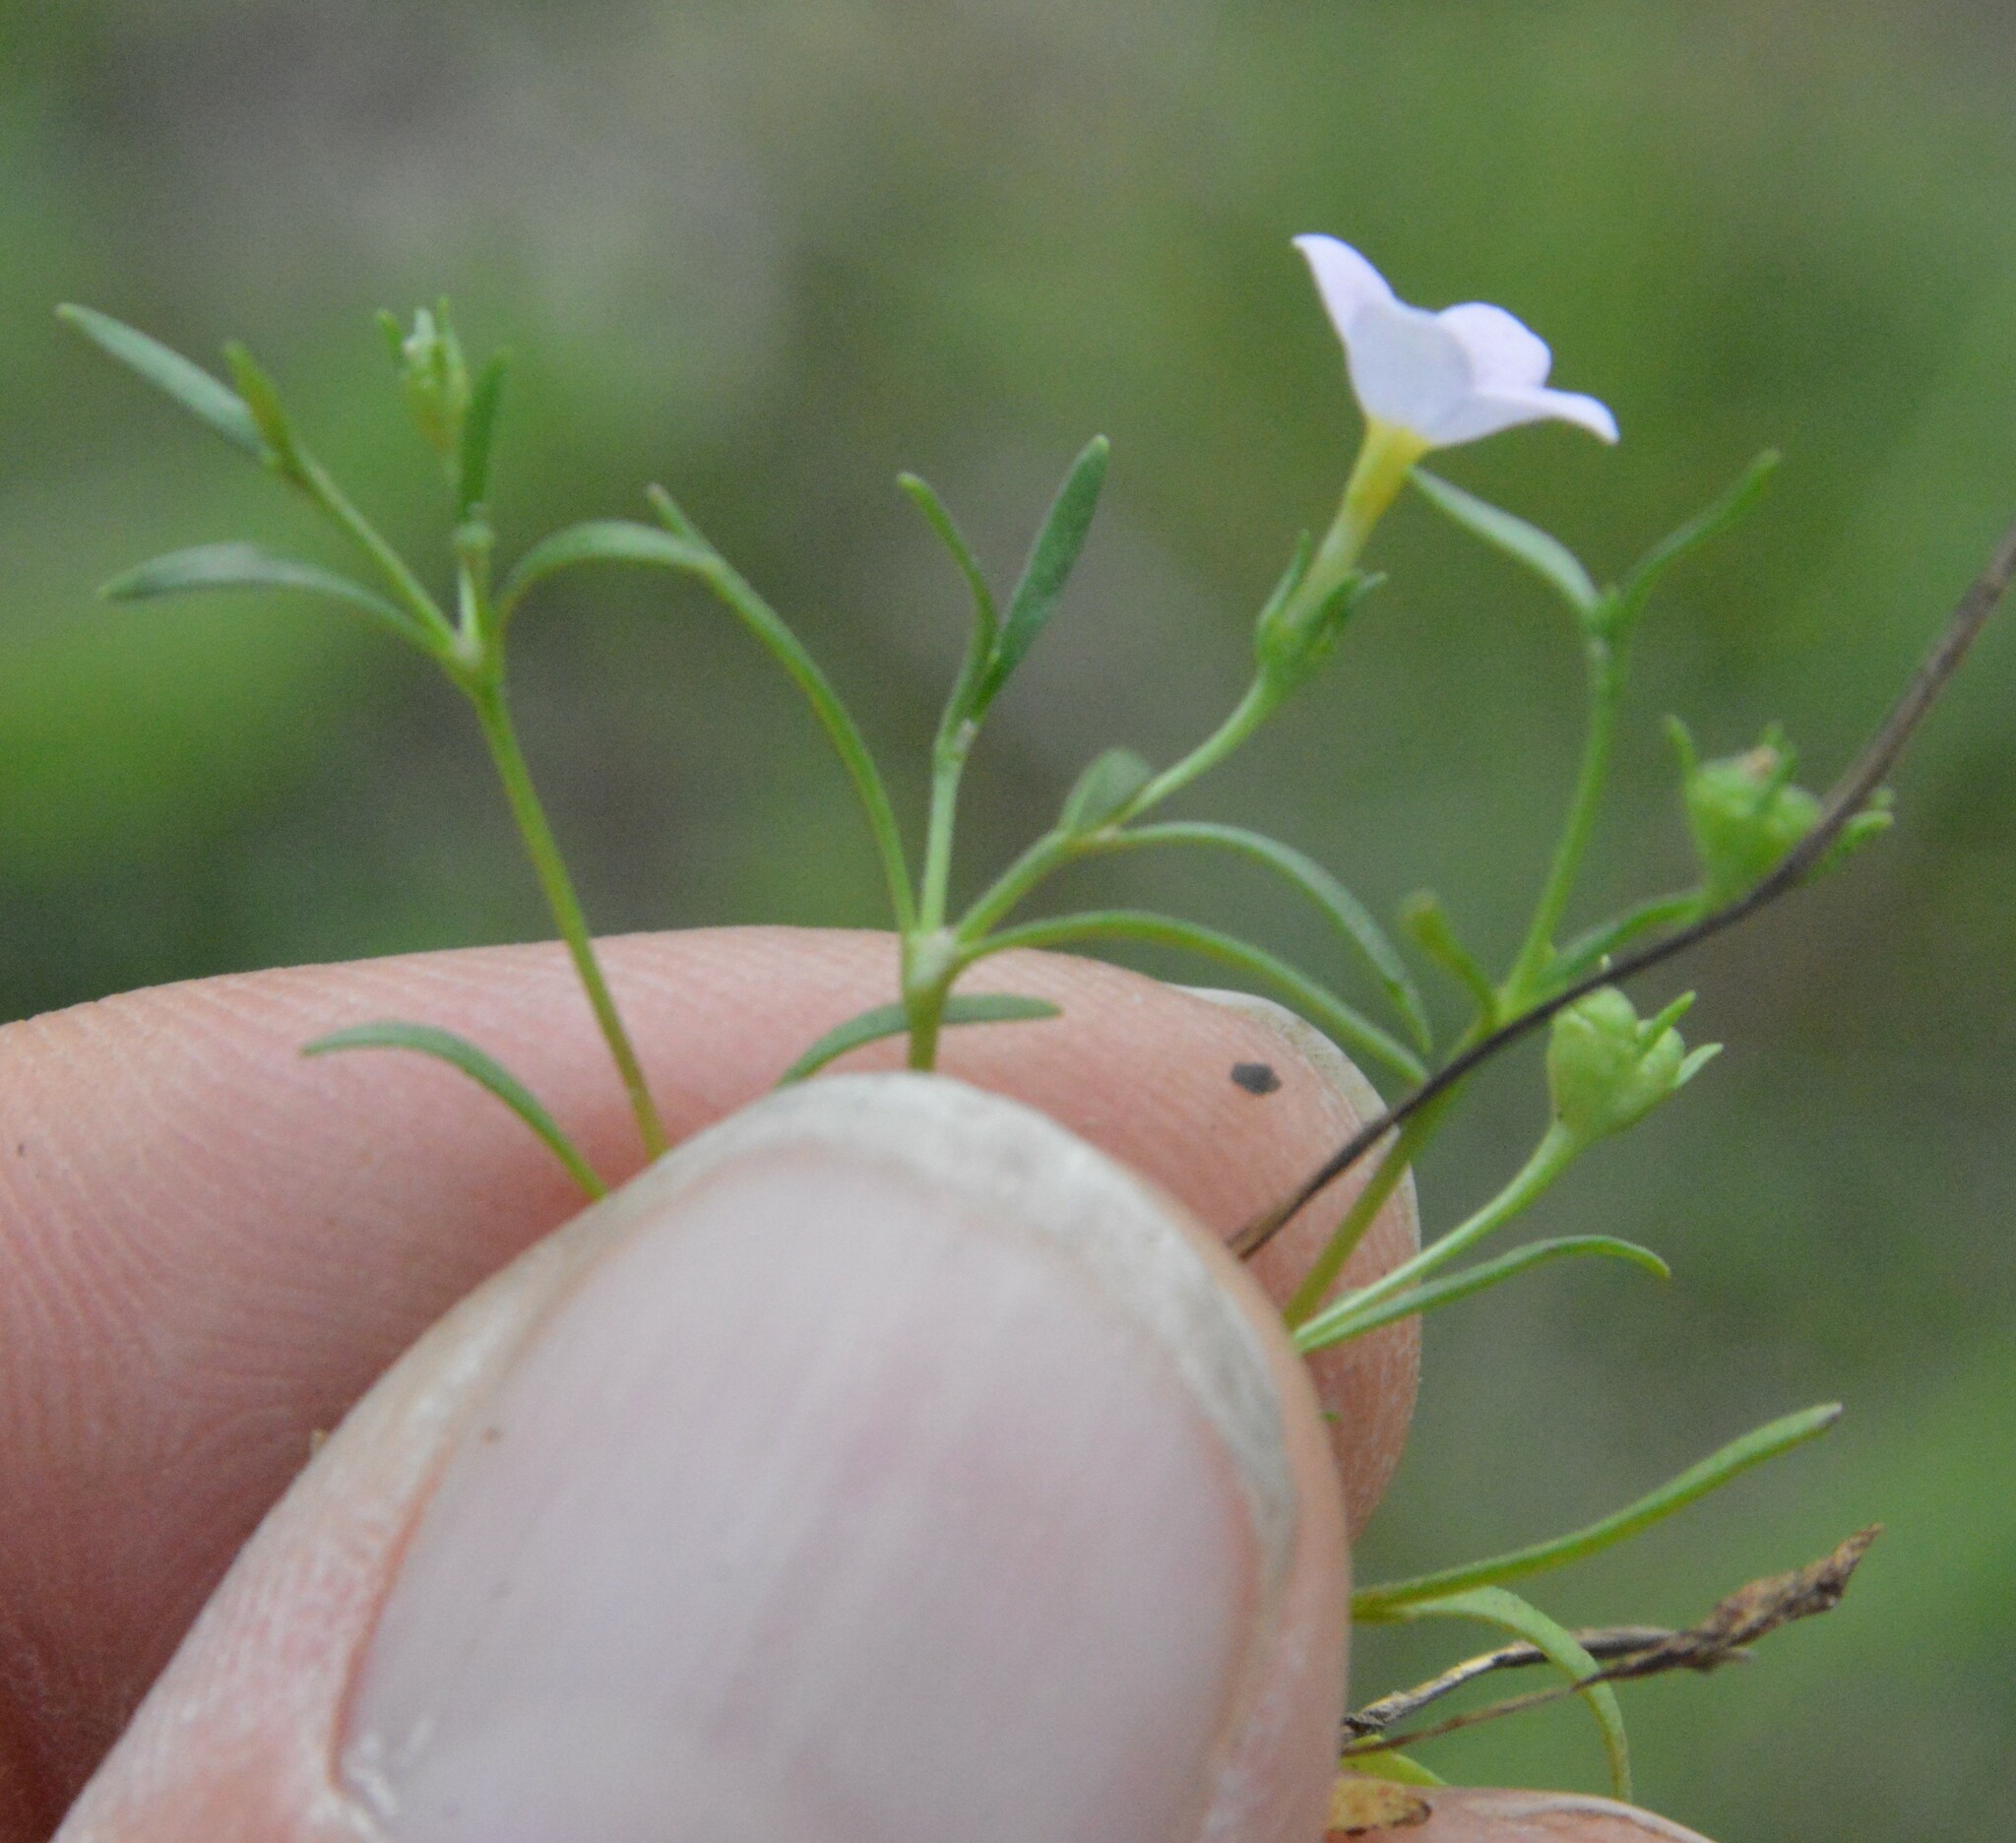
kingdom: Plantae
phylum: Tracheophyta
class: Magnoliopsida
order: Gentianales
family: Rubiaceae
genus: Houstonia
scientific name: Houstonia rosea
